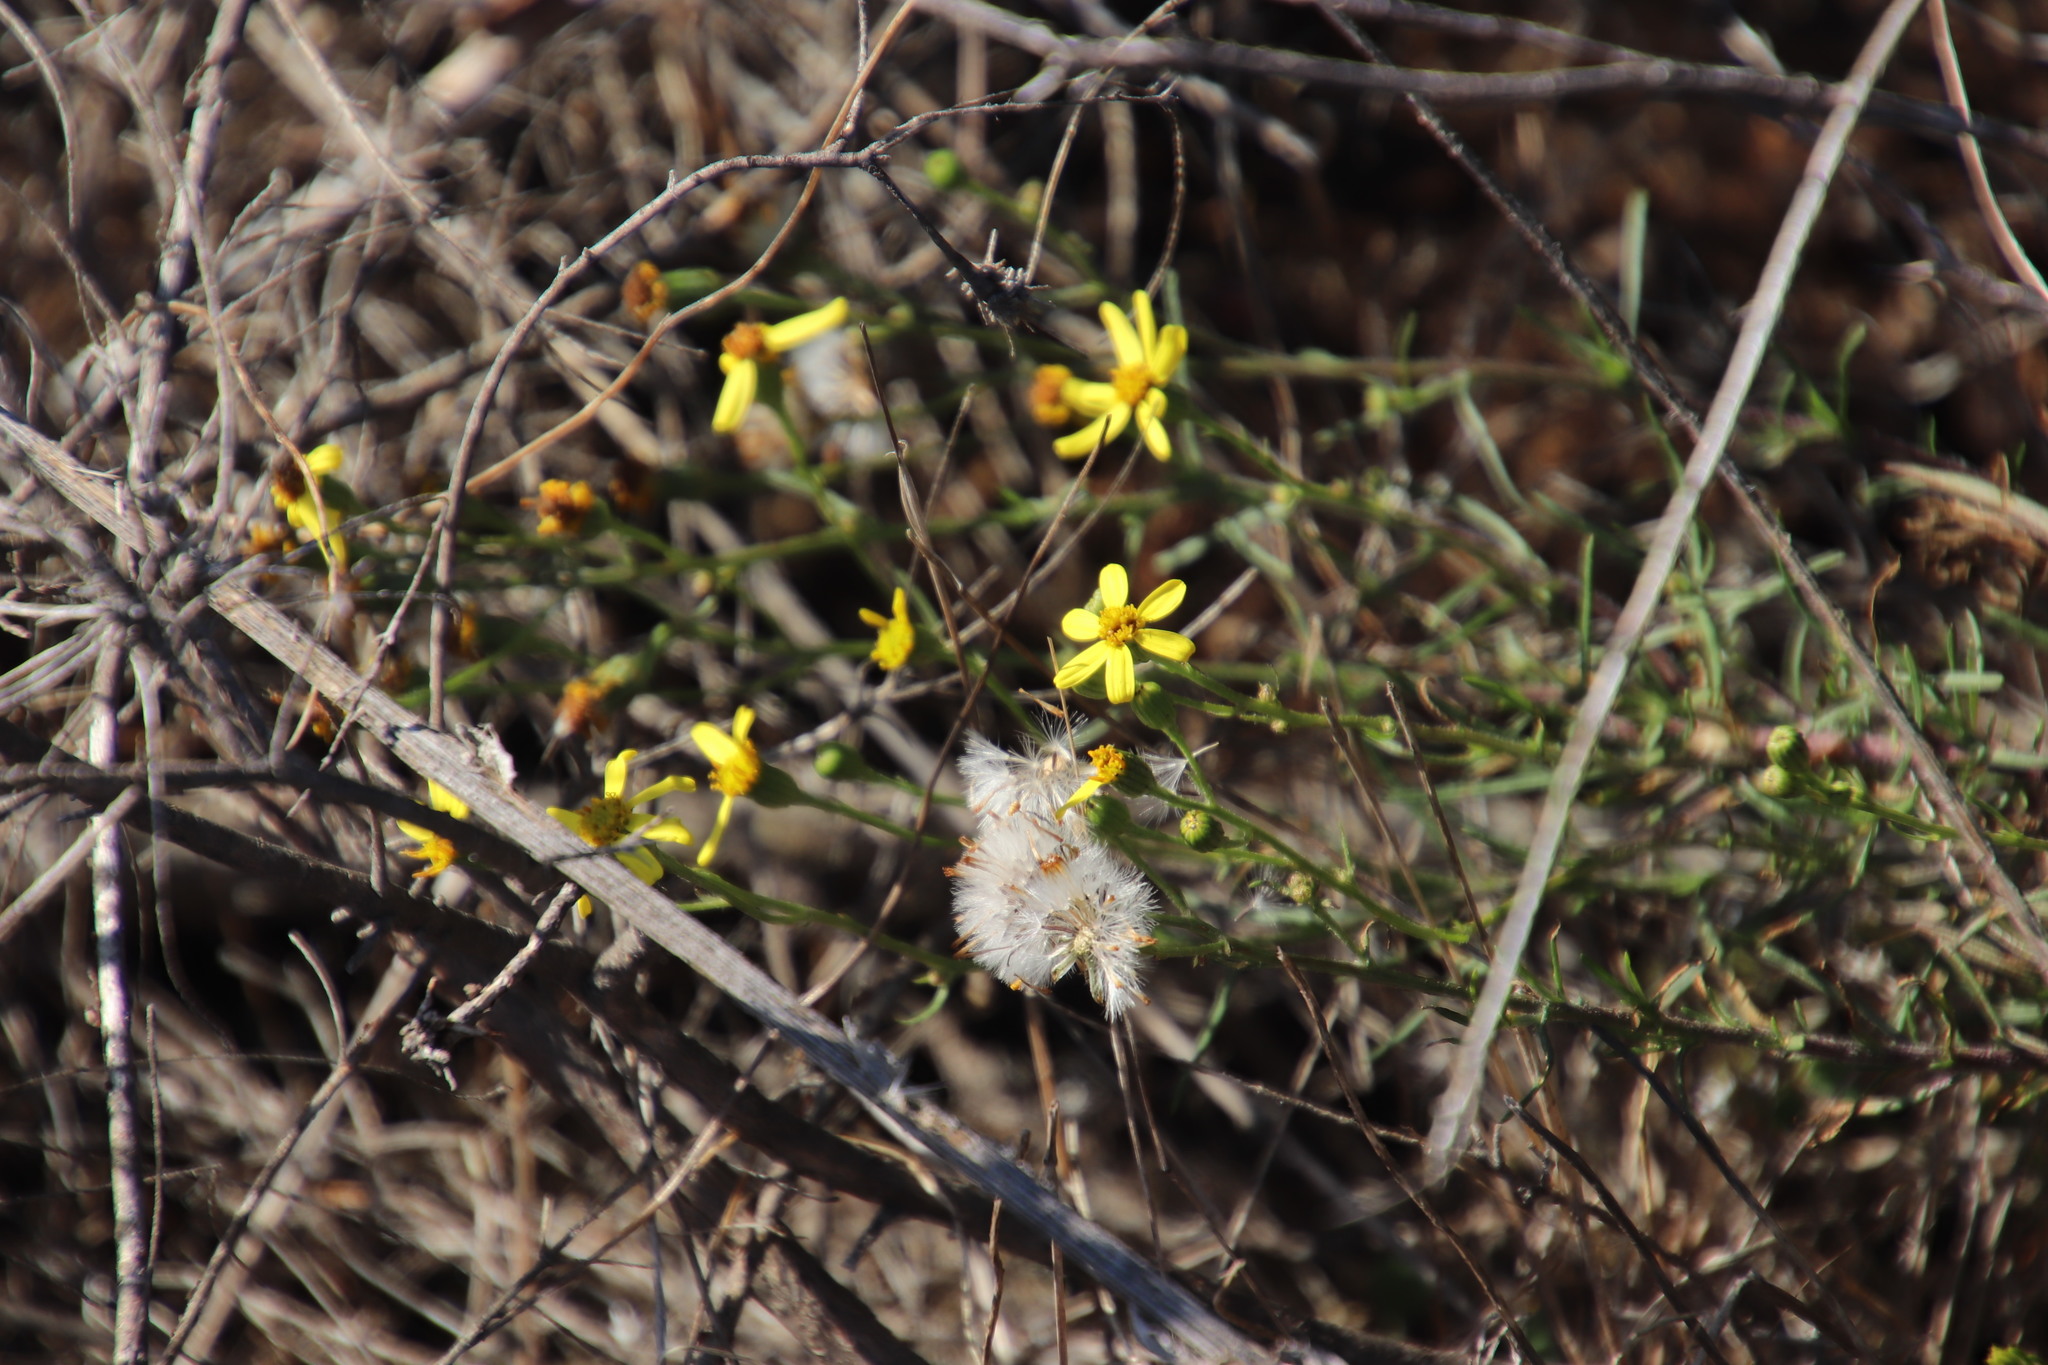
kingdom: Plantae
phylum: Tracheophyta
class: Magnoliopsida
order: Asterales
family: Asteraceae
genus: Senecio
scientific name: Senecio burchellii
